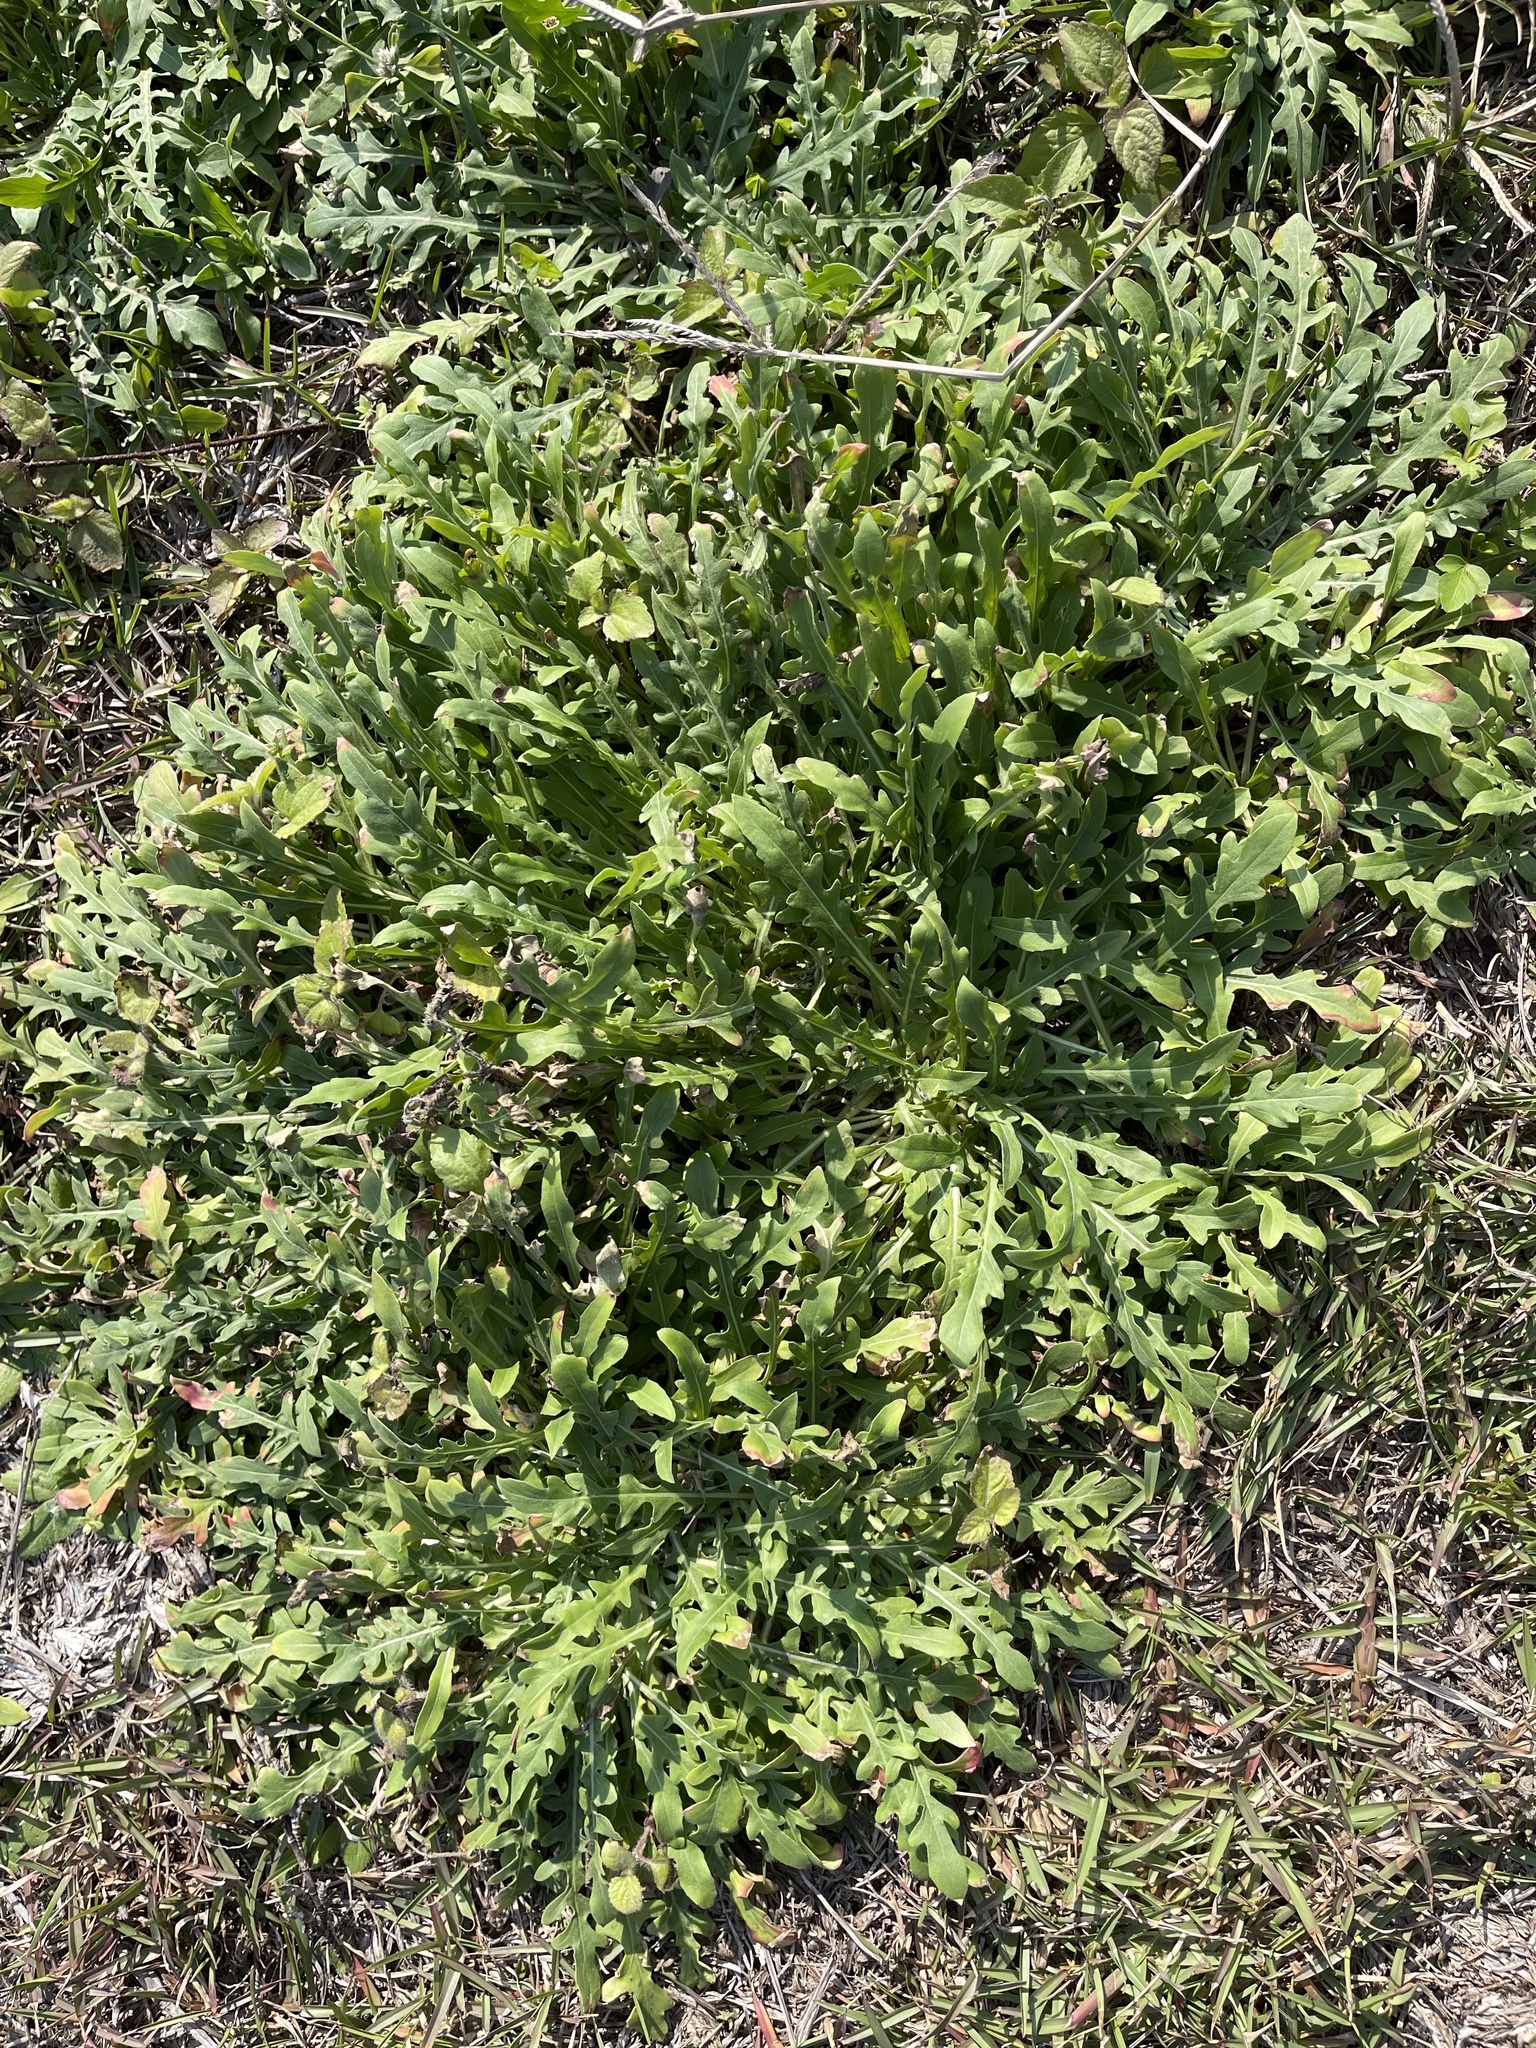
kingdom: Plantae
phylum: Tracheophyta
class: Magnoliopsida
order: Myrtales
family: Onagraceae
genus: Oenothera
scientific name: Oenothera laciniata
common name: Cut-leaved evening-primrose
